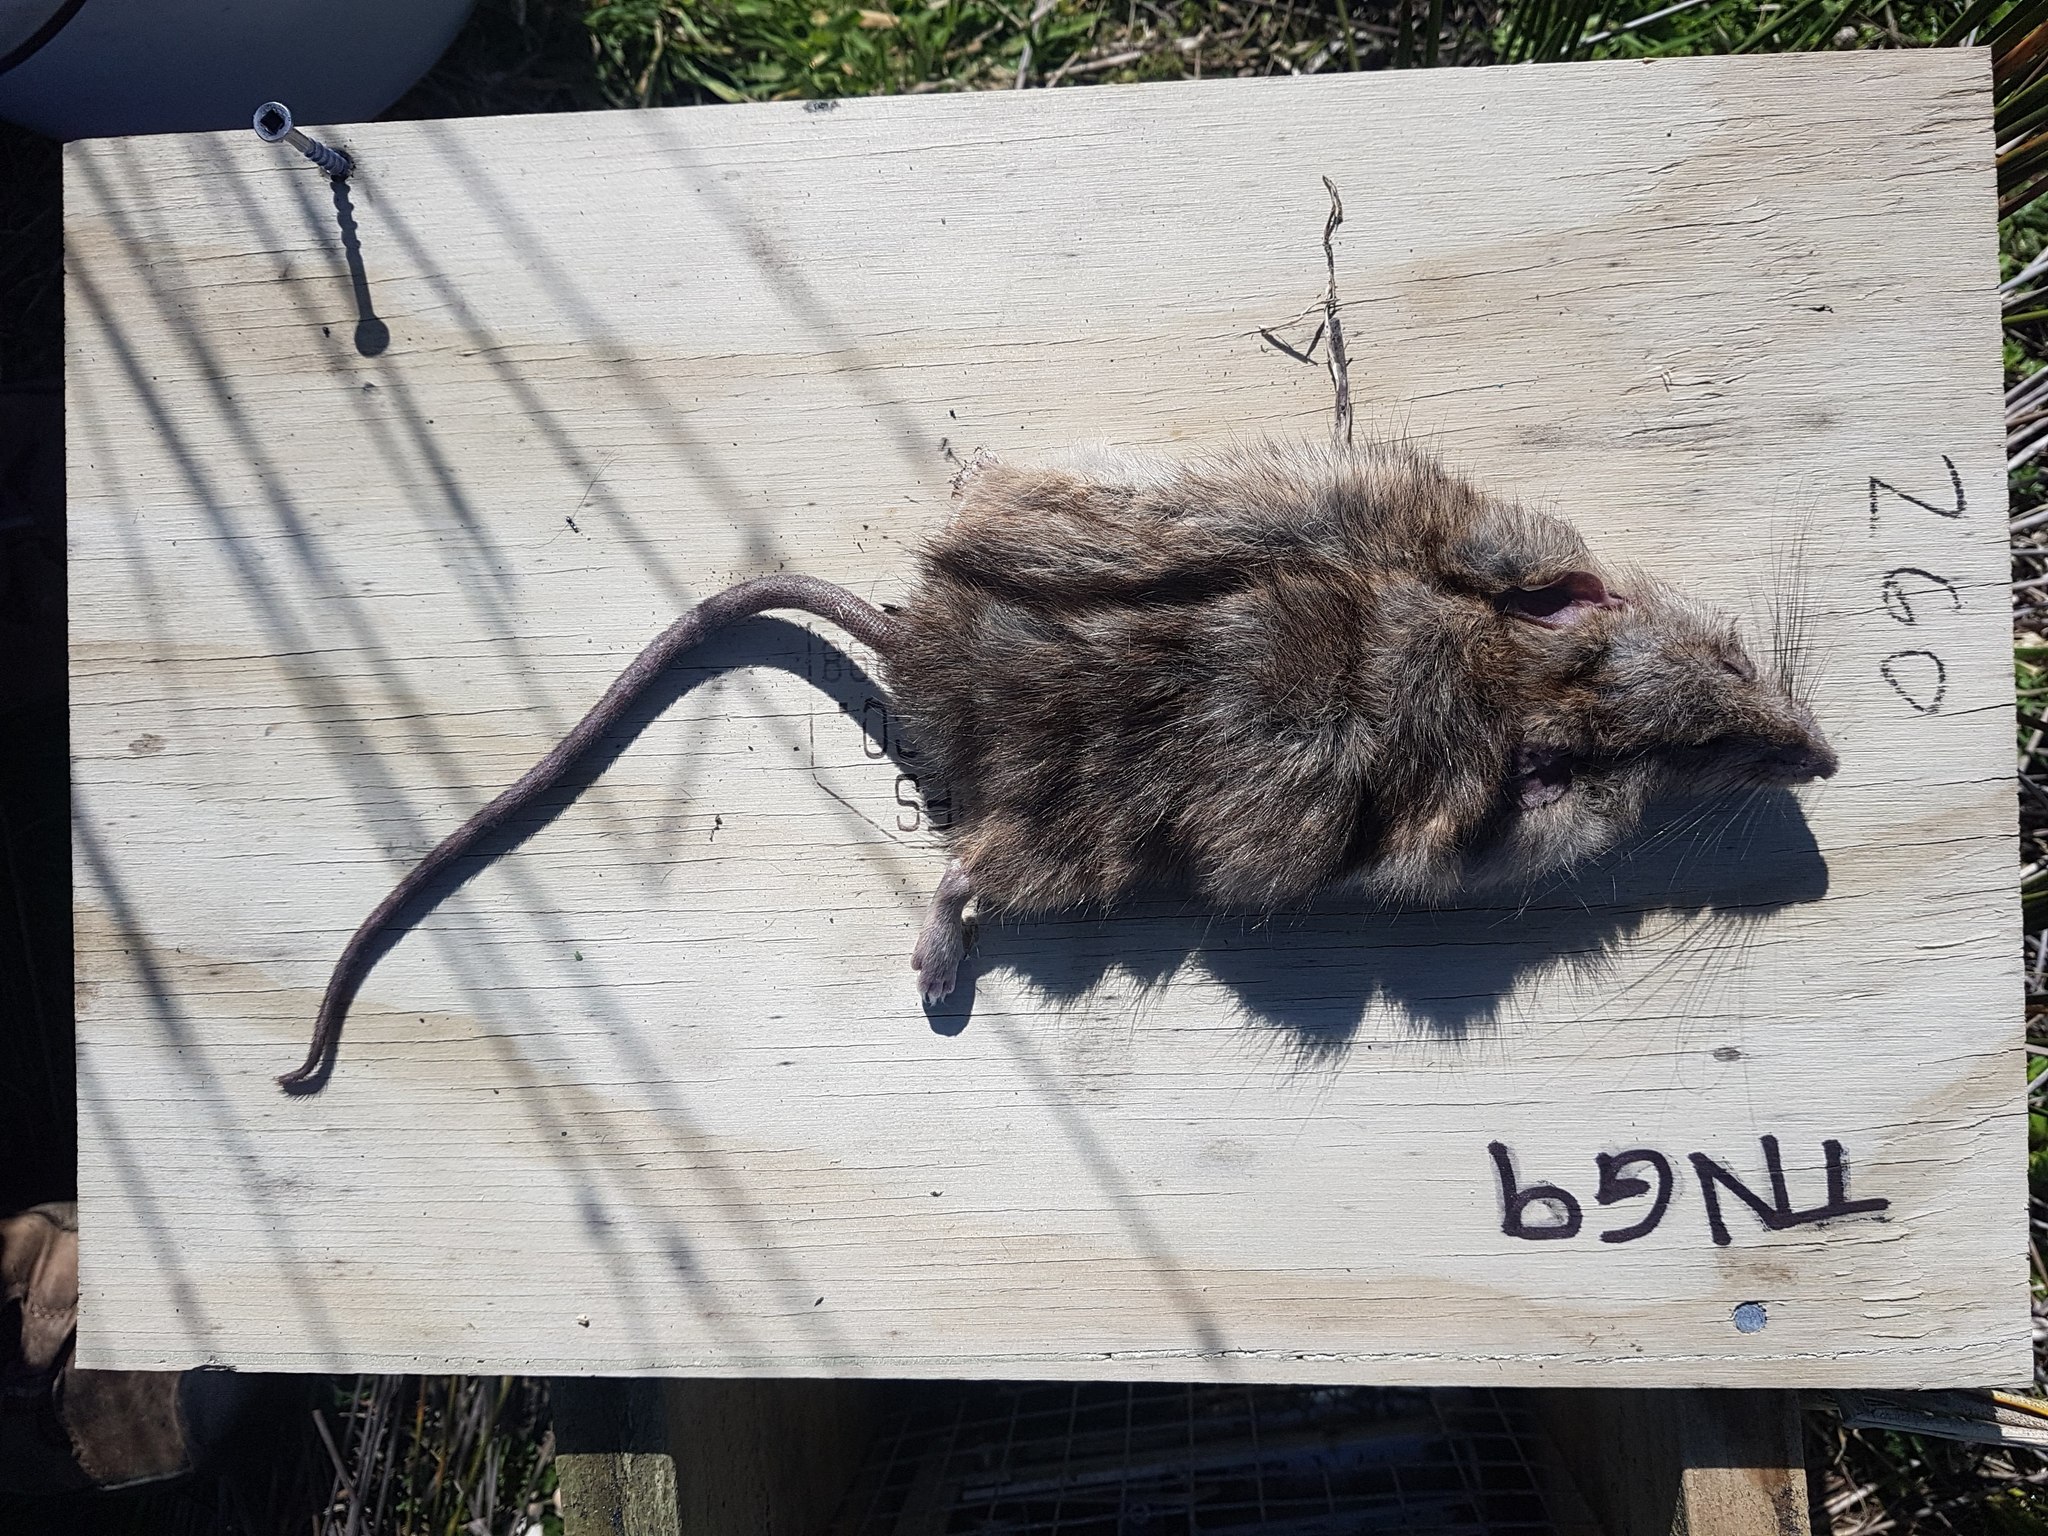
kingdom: Animalia
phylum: Chordata
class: Mammalia
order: Rodentia
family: Muridae
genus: Rattus
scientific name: Rattus norvegicus
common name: Brown rat
